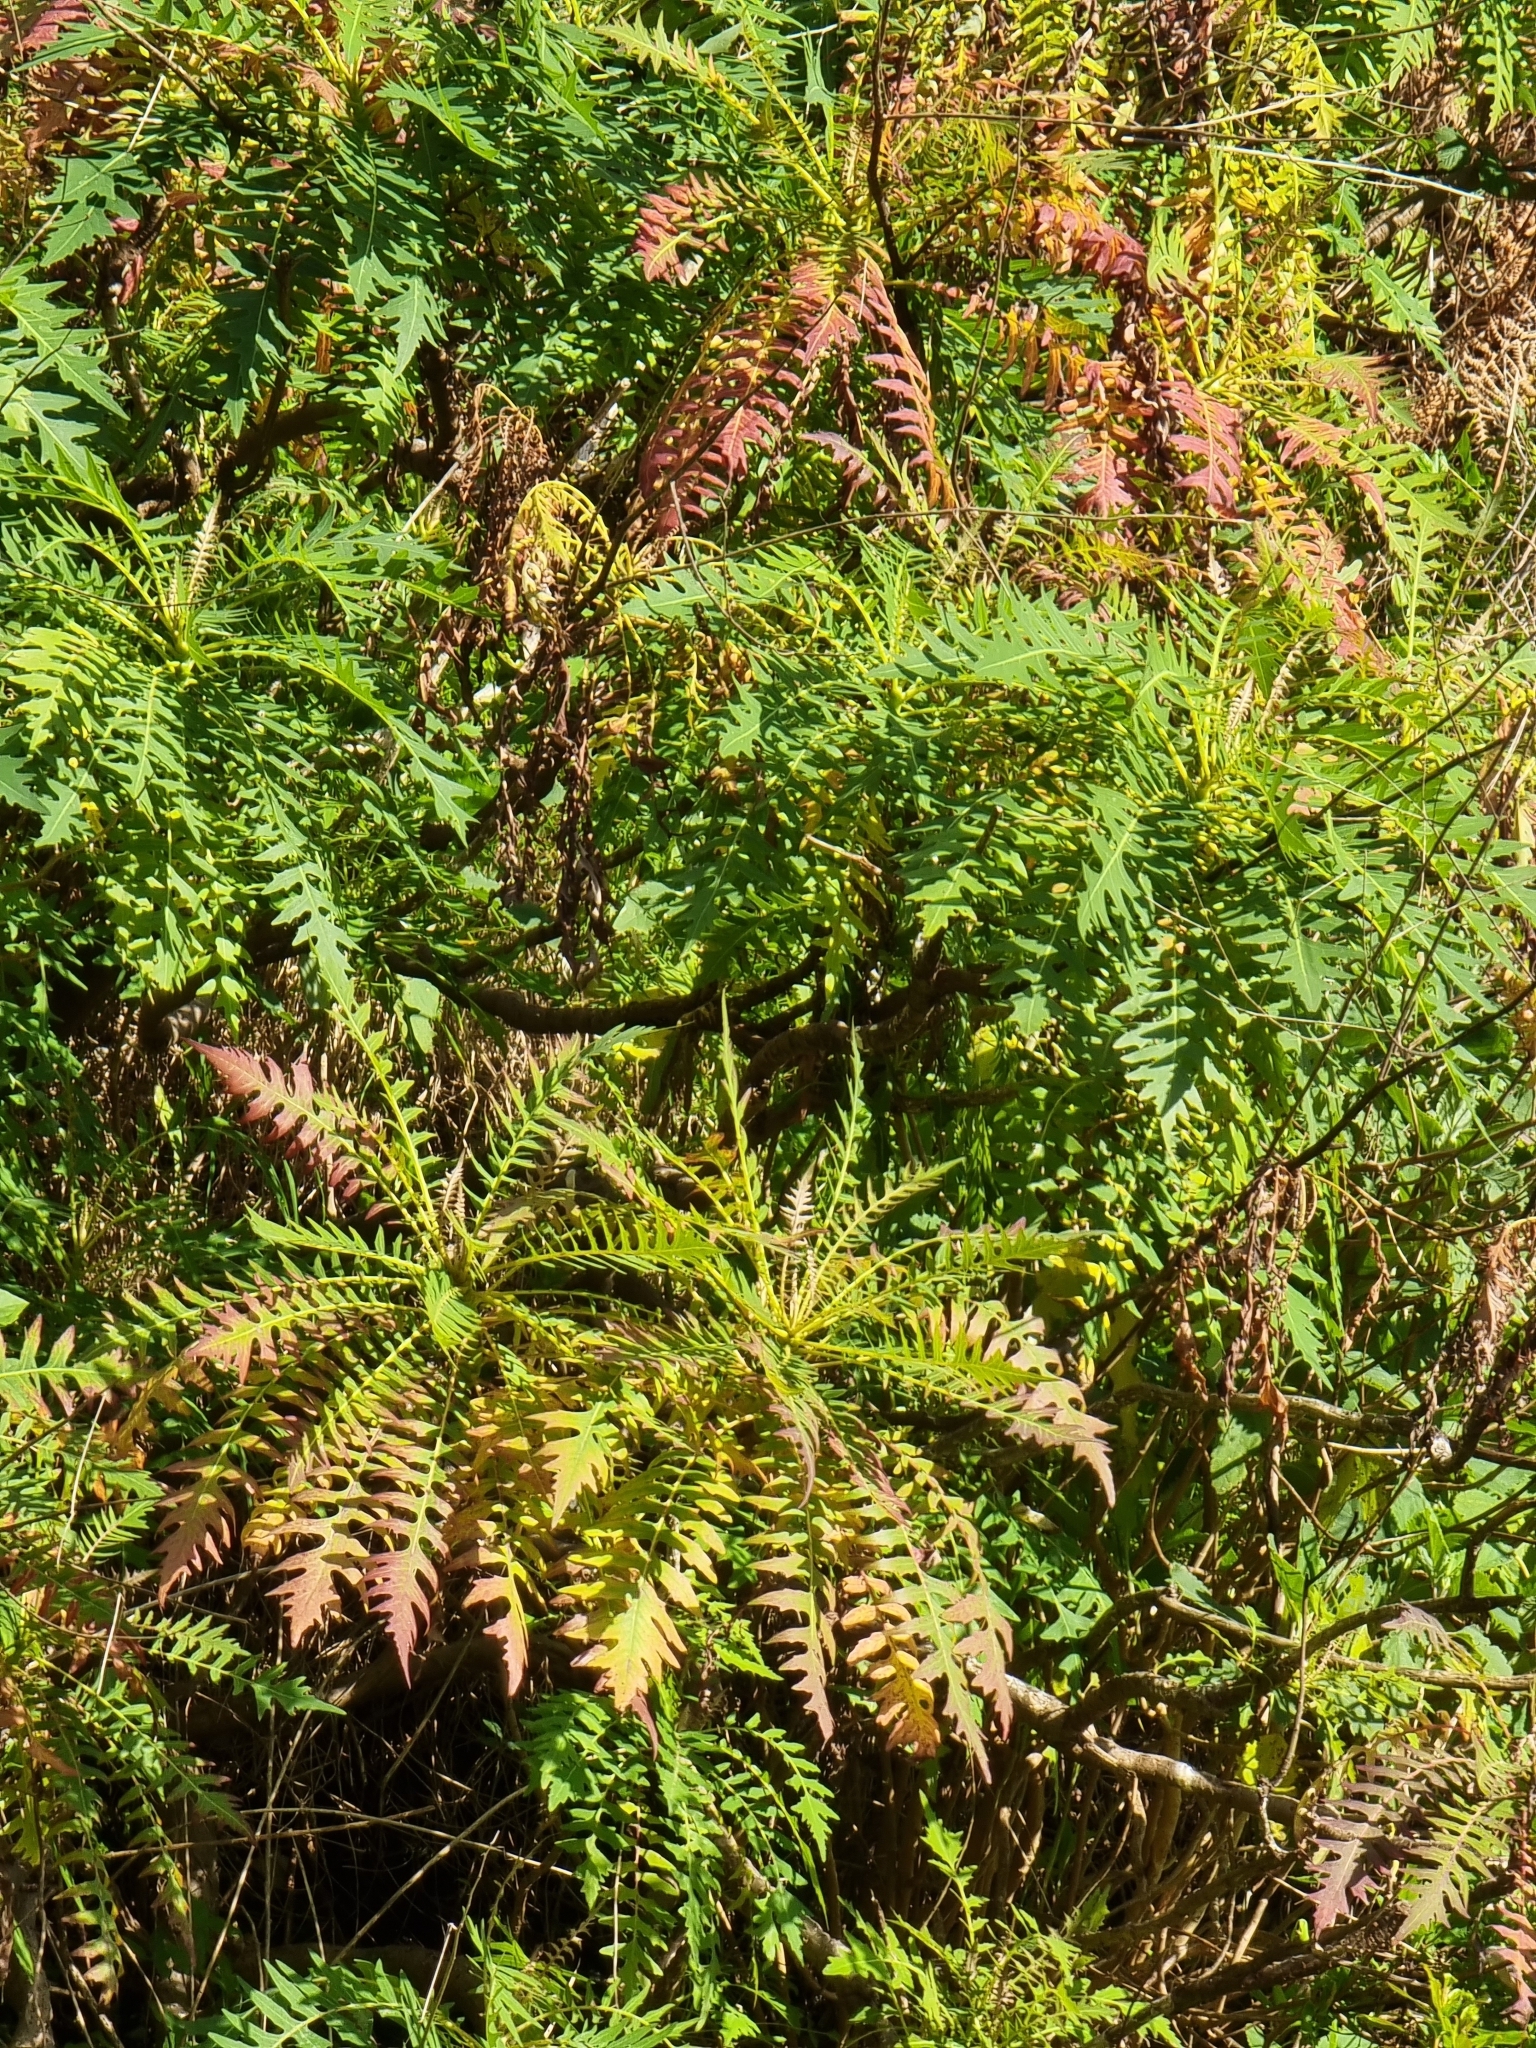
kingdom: Plantae
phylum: Tracheophyta
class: Magnoliopsida
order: Asterales
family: Asteraceae
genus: Sonchus
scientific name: Sonchus pinnatus
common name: Wing-leaved sow-thistle
